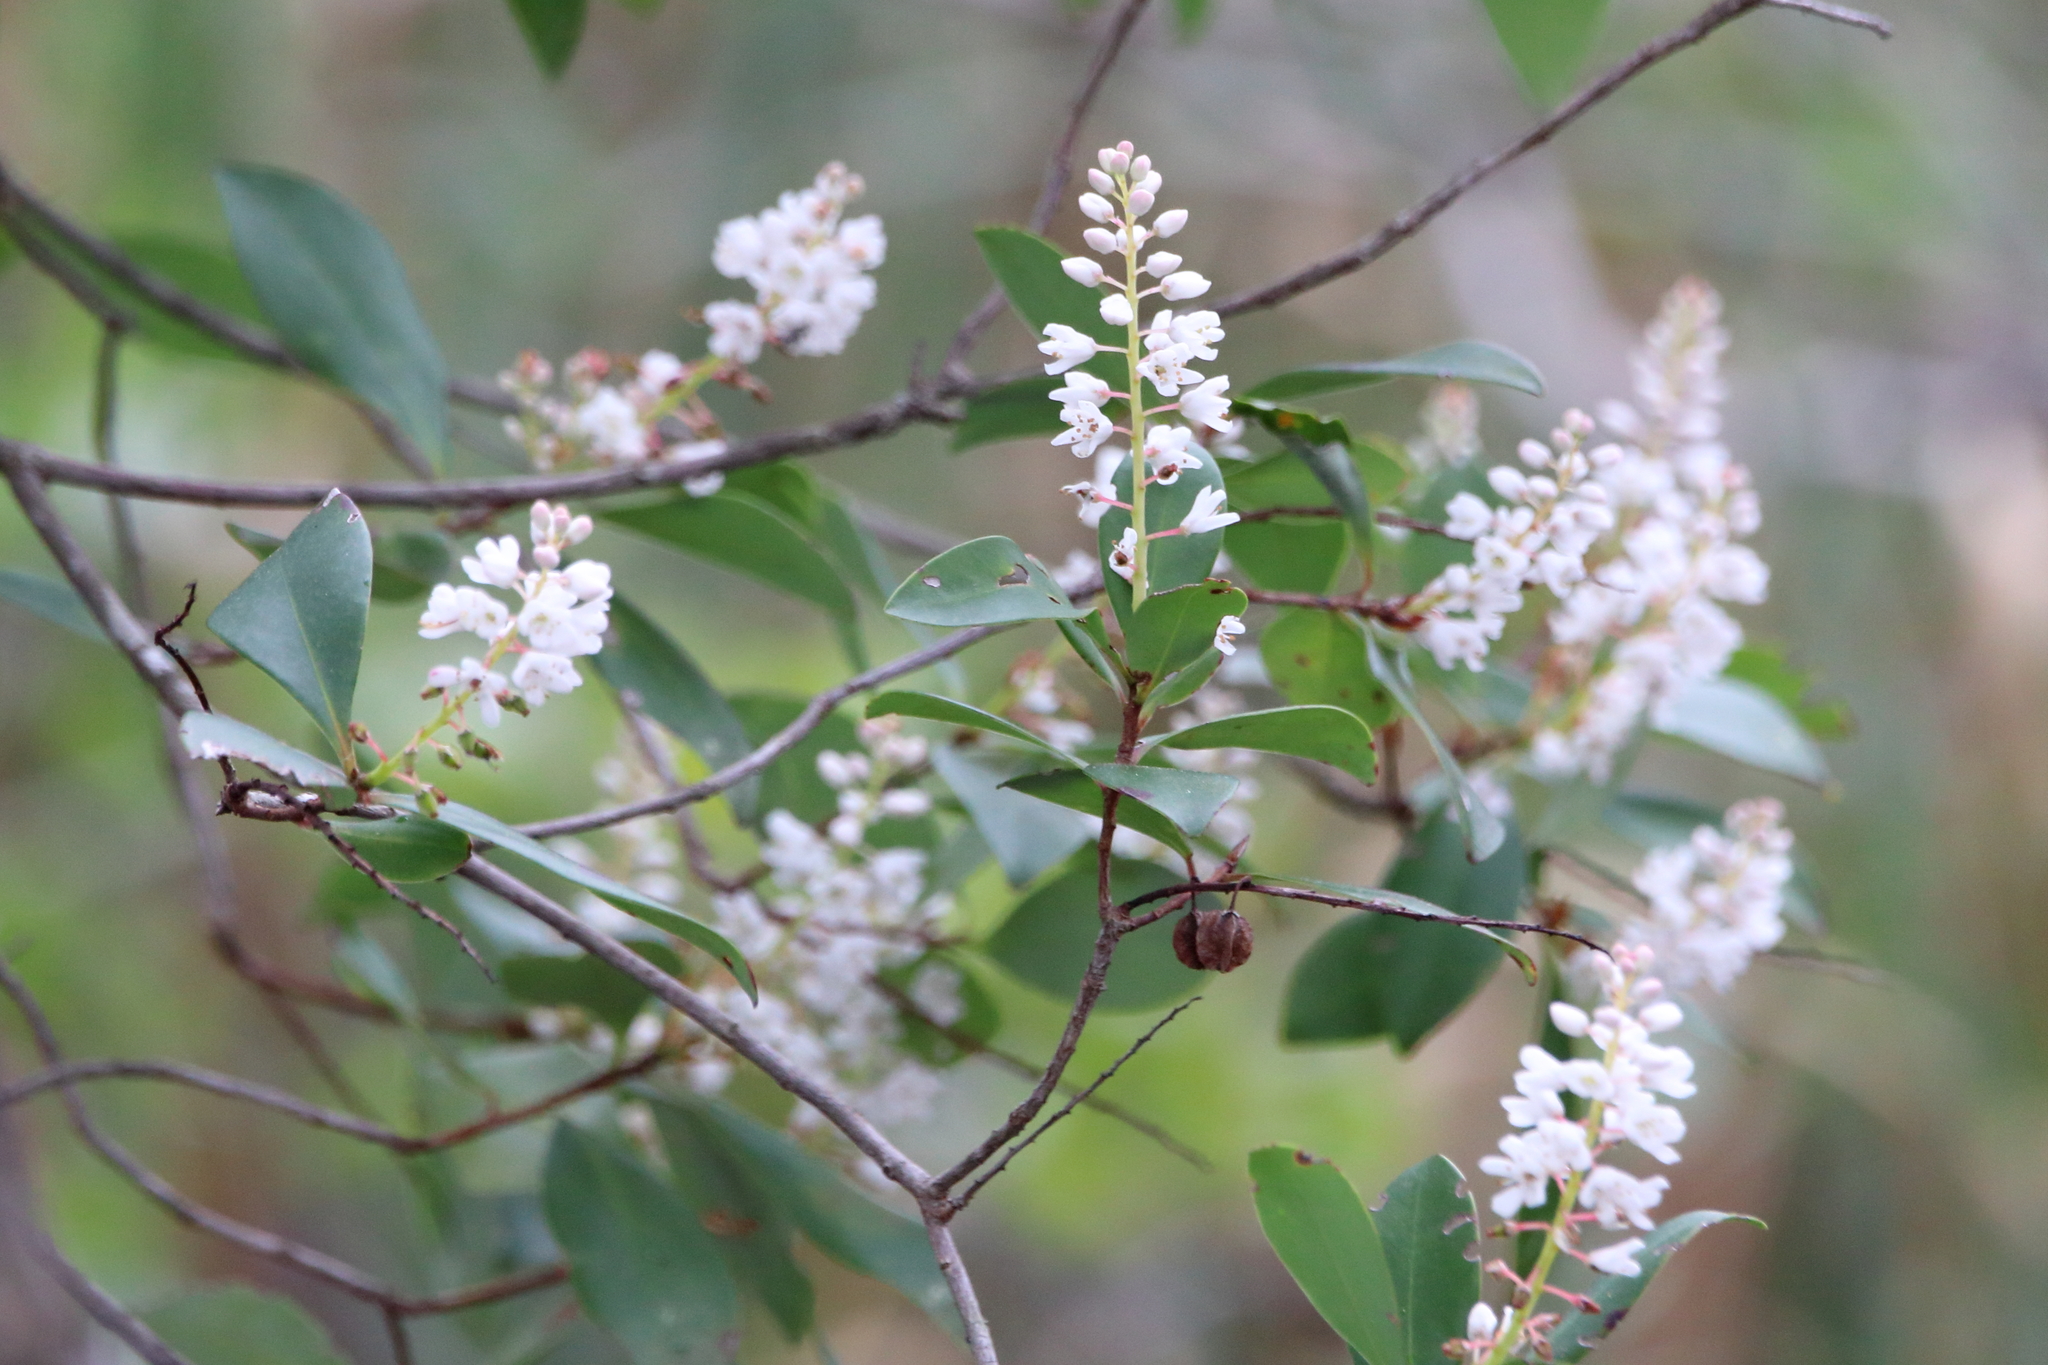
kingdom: Plantae
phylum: Tracheophyta
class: Magnoliopsida
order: Ericales
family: Cyrillaceae
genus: Cliftonia
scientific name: Cliftonia monophylla
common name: Titi
